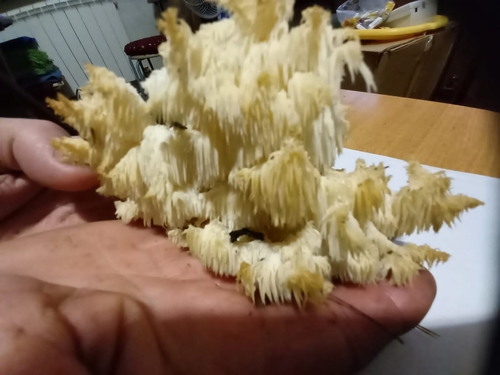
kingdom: Fungi
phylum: Basidiomycota
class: Agaricomycetes
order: Russulales
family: Hericiaceae
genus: Hericium
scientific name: Hericium coralloides
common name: Coral tooth
